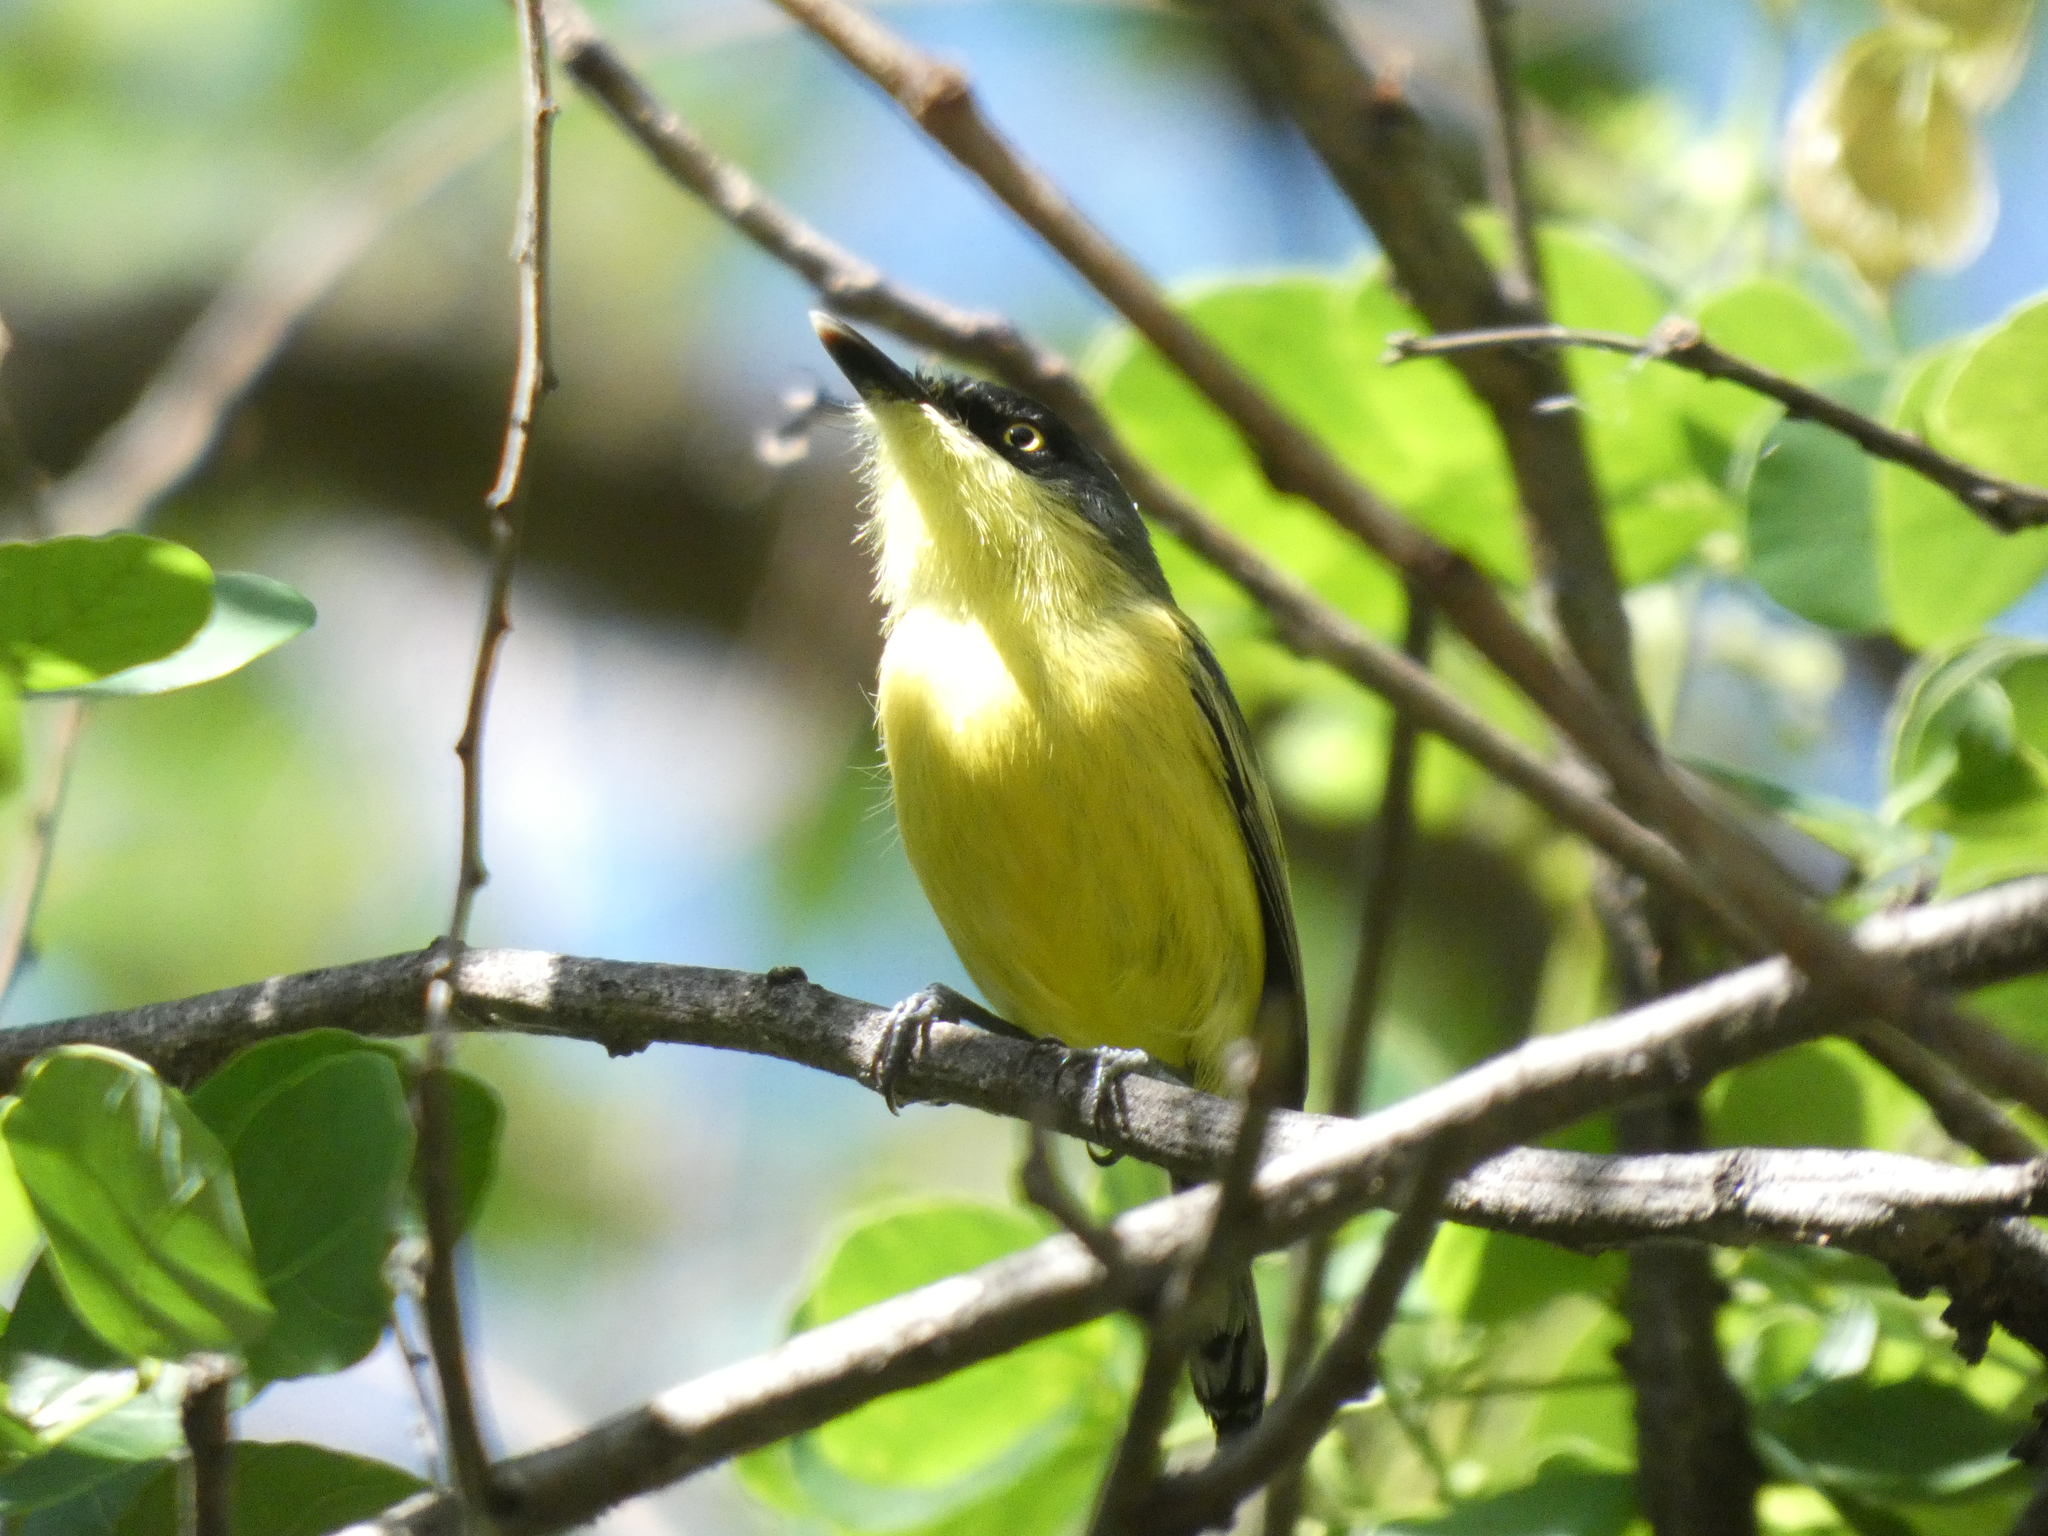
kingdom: Animalia
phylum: Chordata
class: Aves
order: Passeriformes
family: Tyrannidae
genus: Todirostrum
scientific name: Todirostrum cinereum
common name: Common tody-flycatcher
